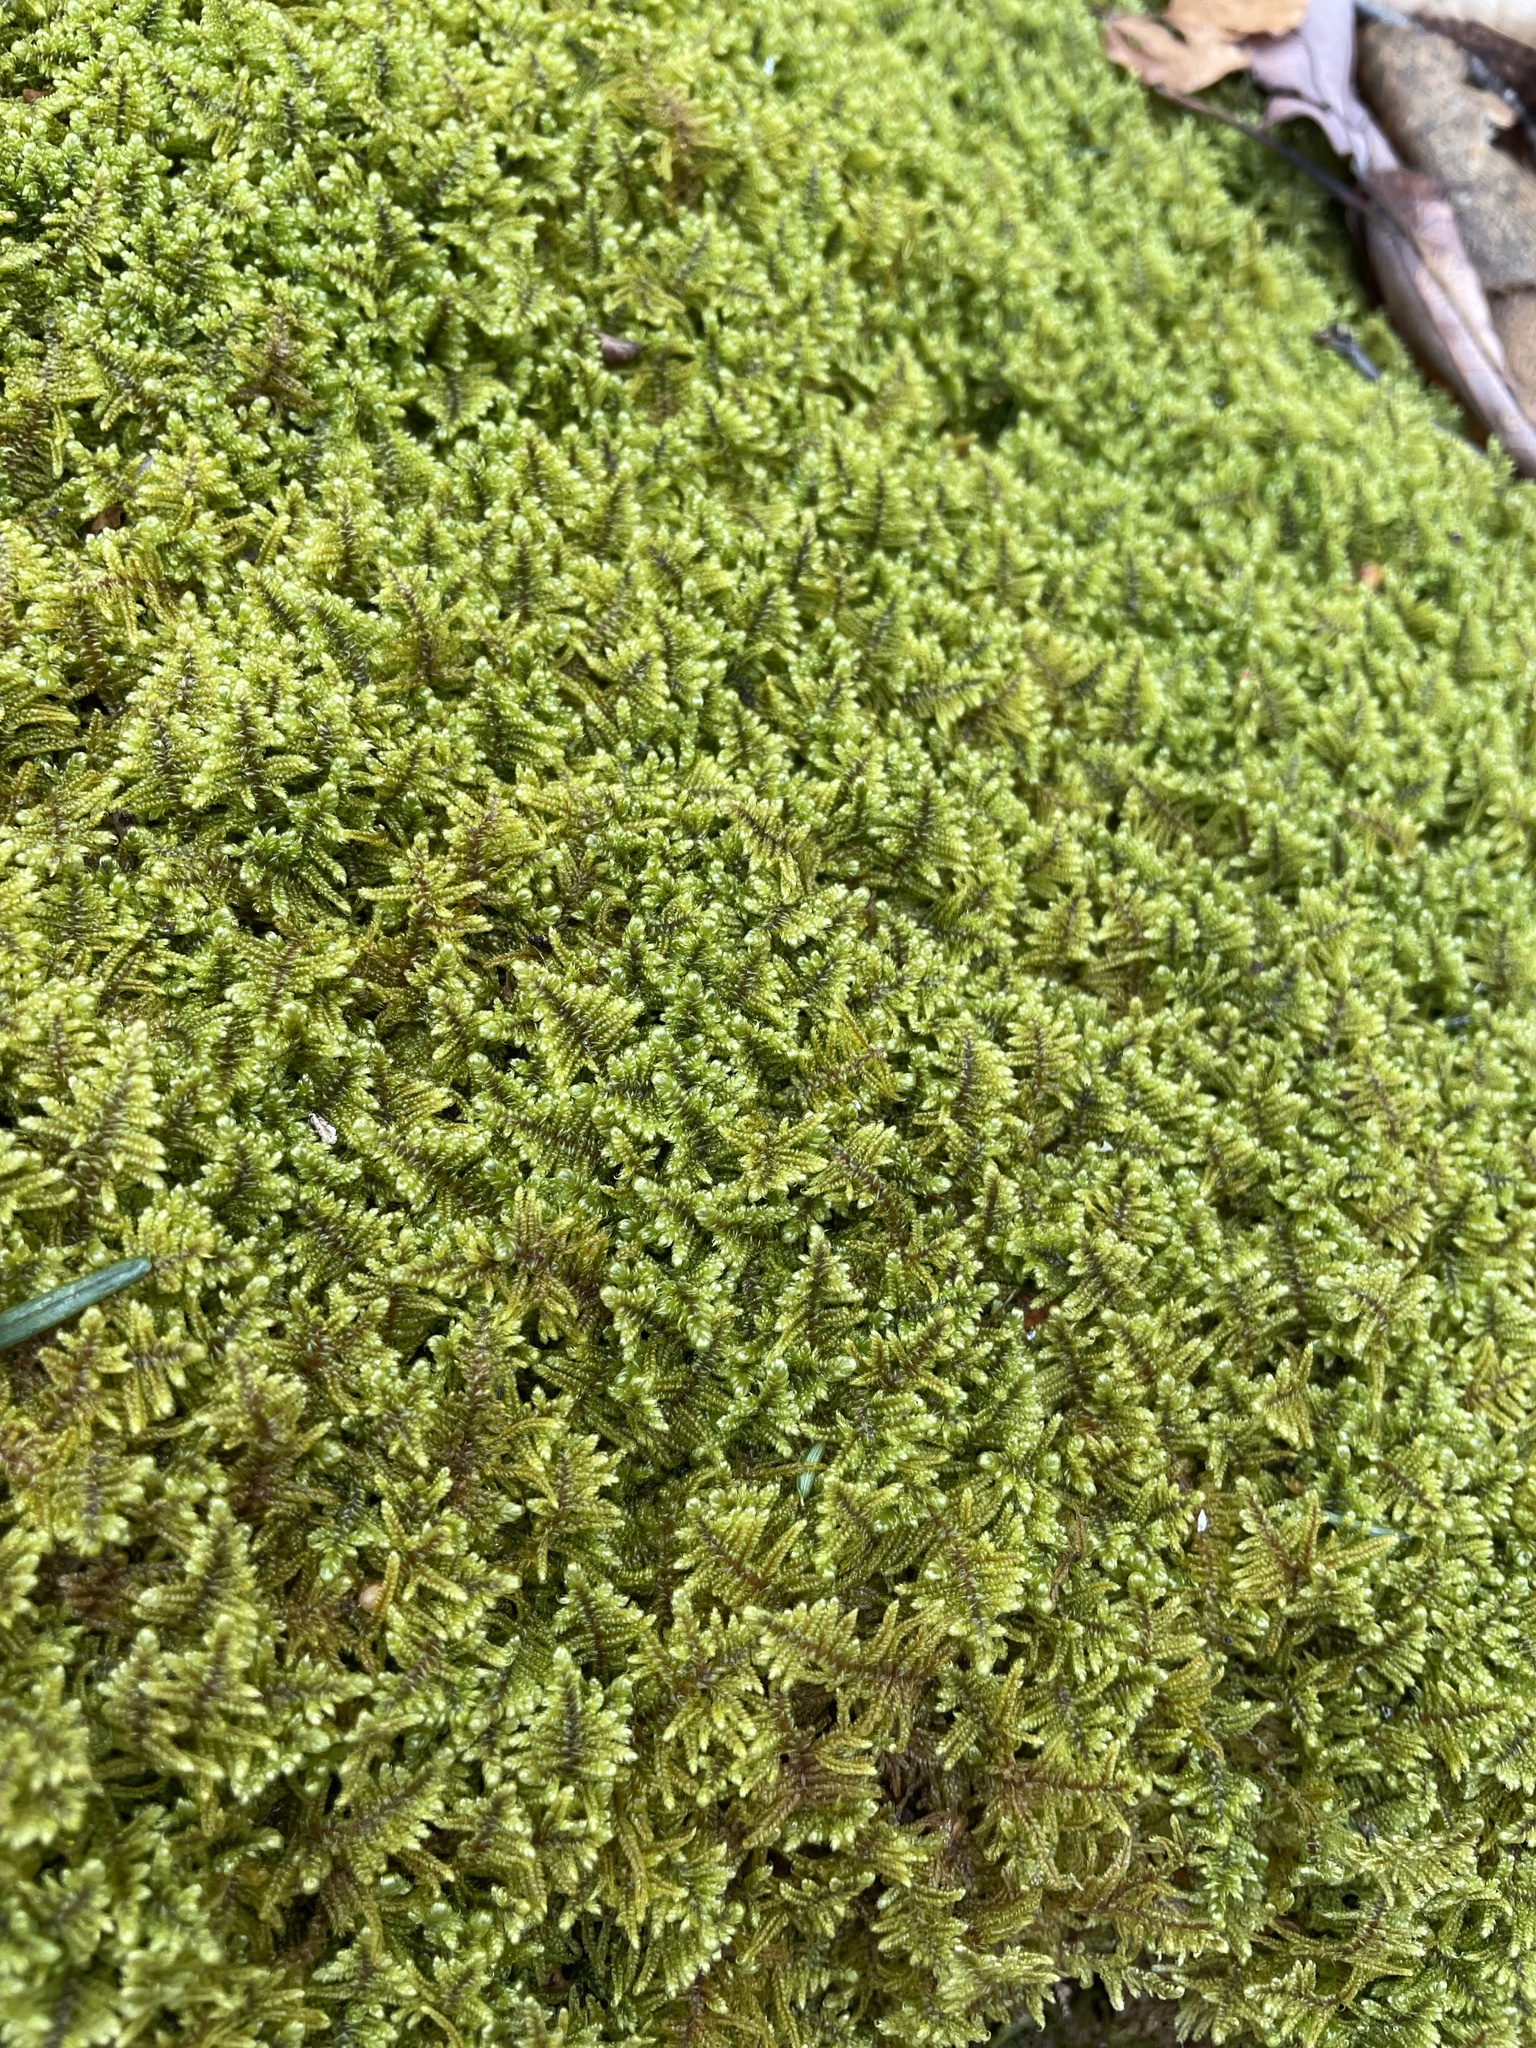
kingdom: Plantae
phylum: Bryophyta
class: Bryopsida
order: Hypnales
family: Callicladiaceae
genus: Callicladium
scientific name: Callicladium imponens
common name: Brocade moss
